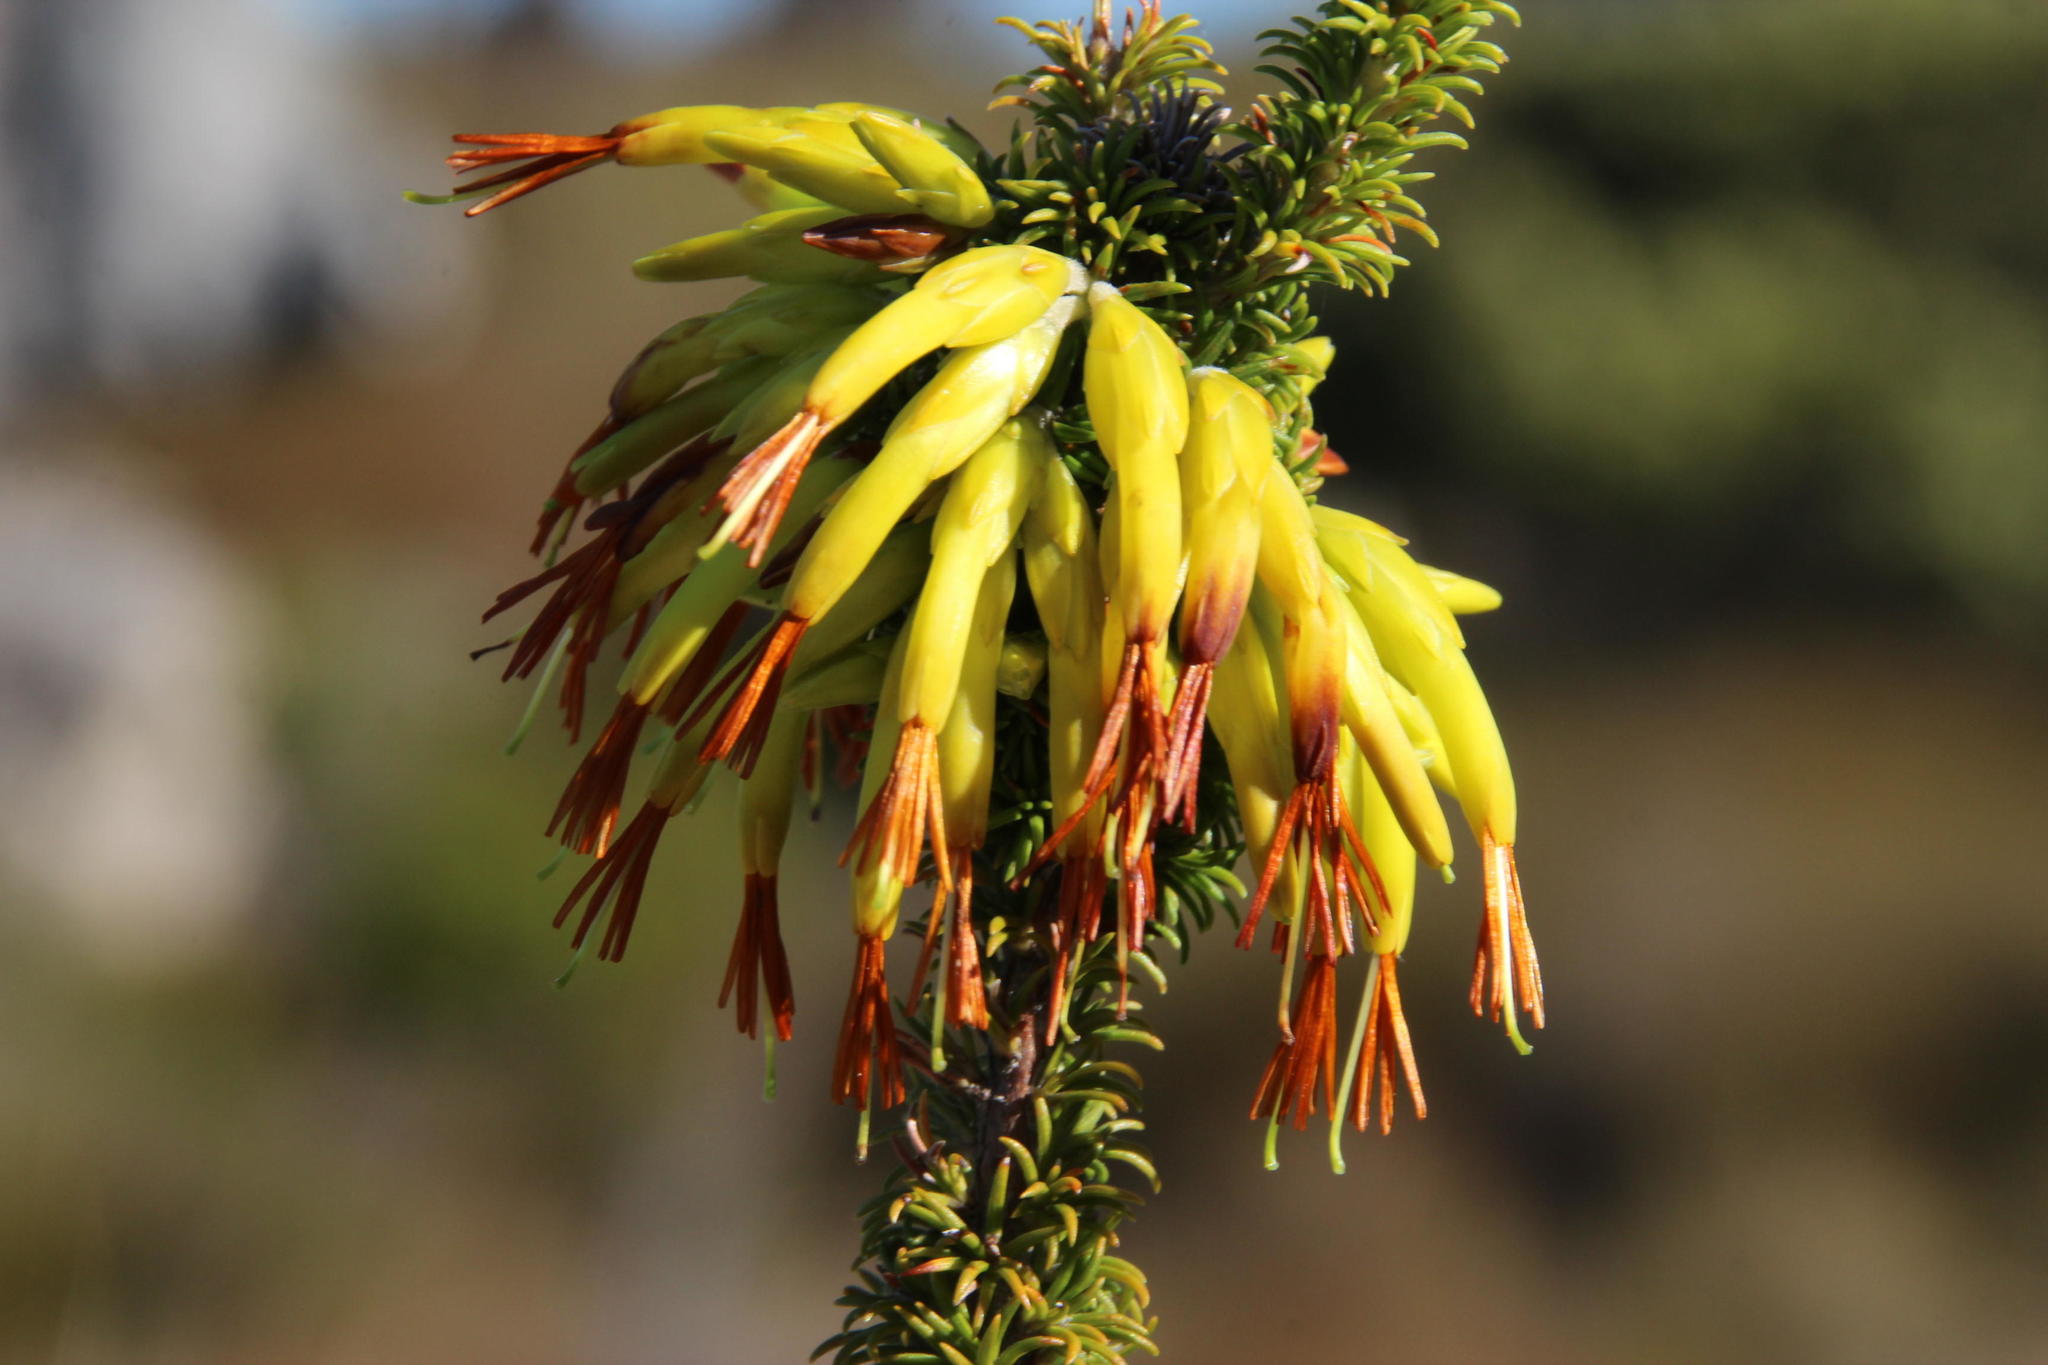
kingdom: Plantae
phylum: Tracheophyta
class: Magnoliopsida
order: Ericales
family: Ericaceae
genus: Erica
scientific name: Erica coccinea
